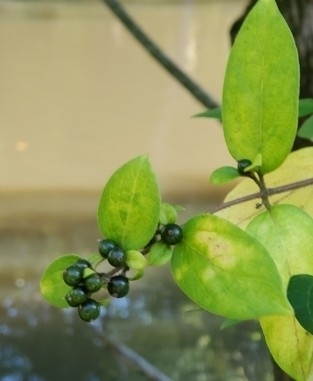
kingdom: Plantae
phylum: Tracheophyta
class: Magnoliopsida
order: Dipsacales
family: Caprifoliaceae
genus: Lonicera
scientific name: Lonicera japonica
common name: Japanese honeysuckle
